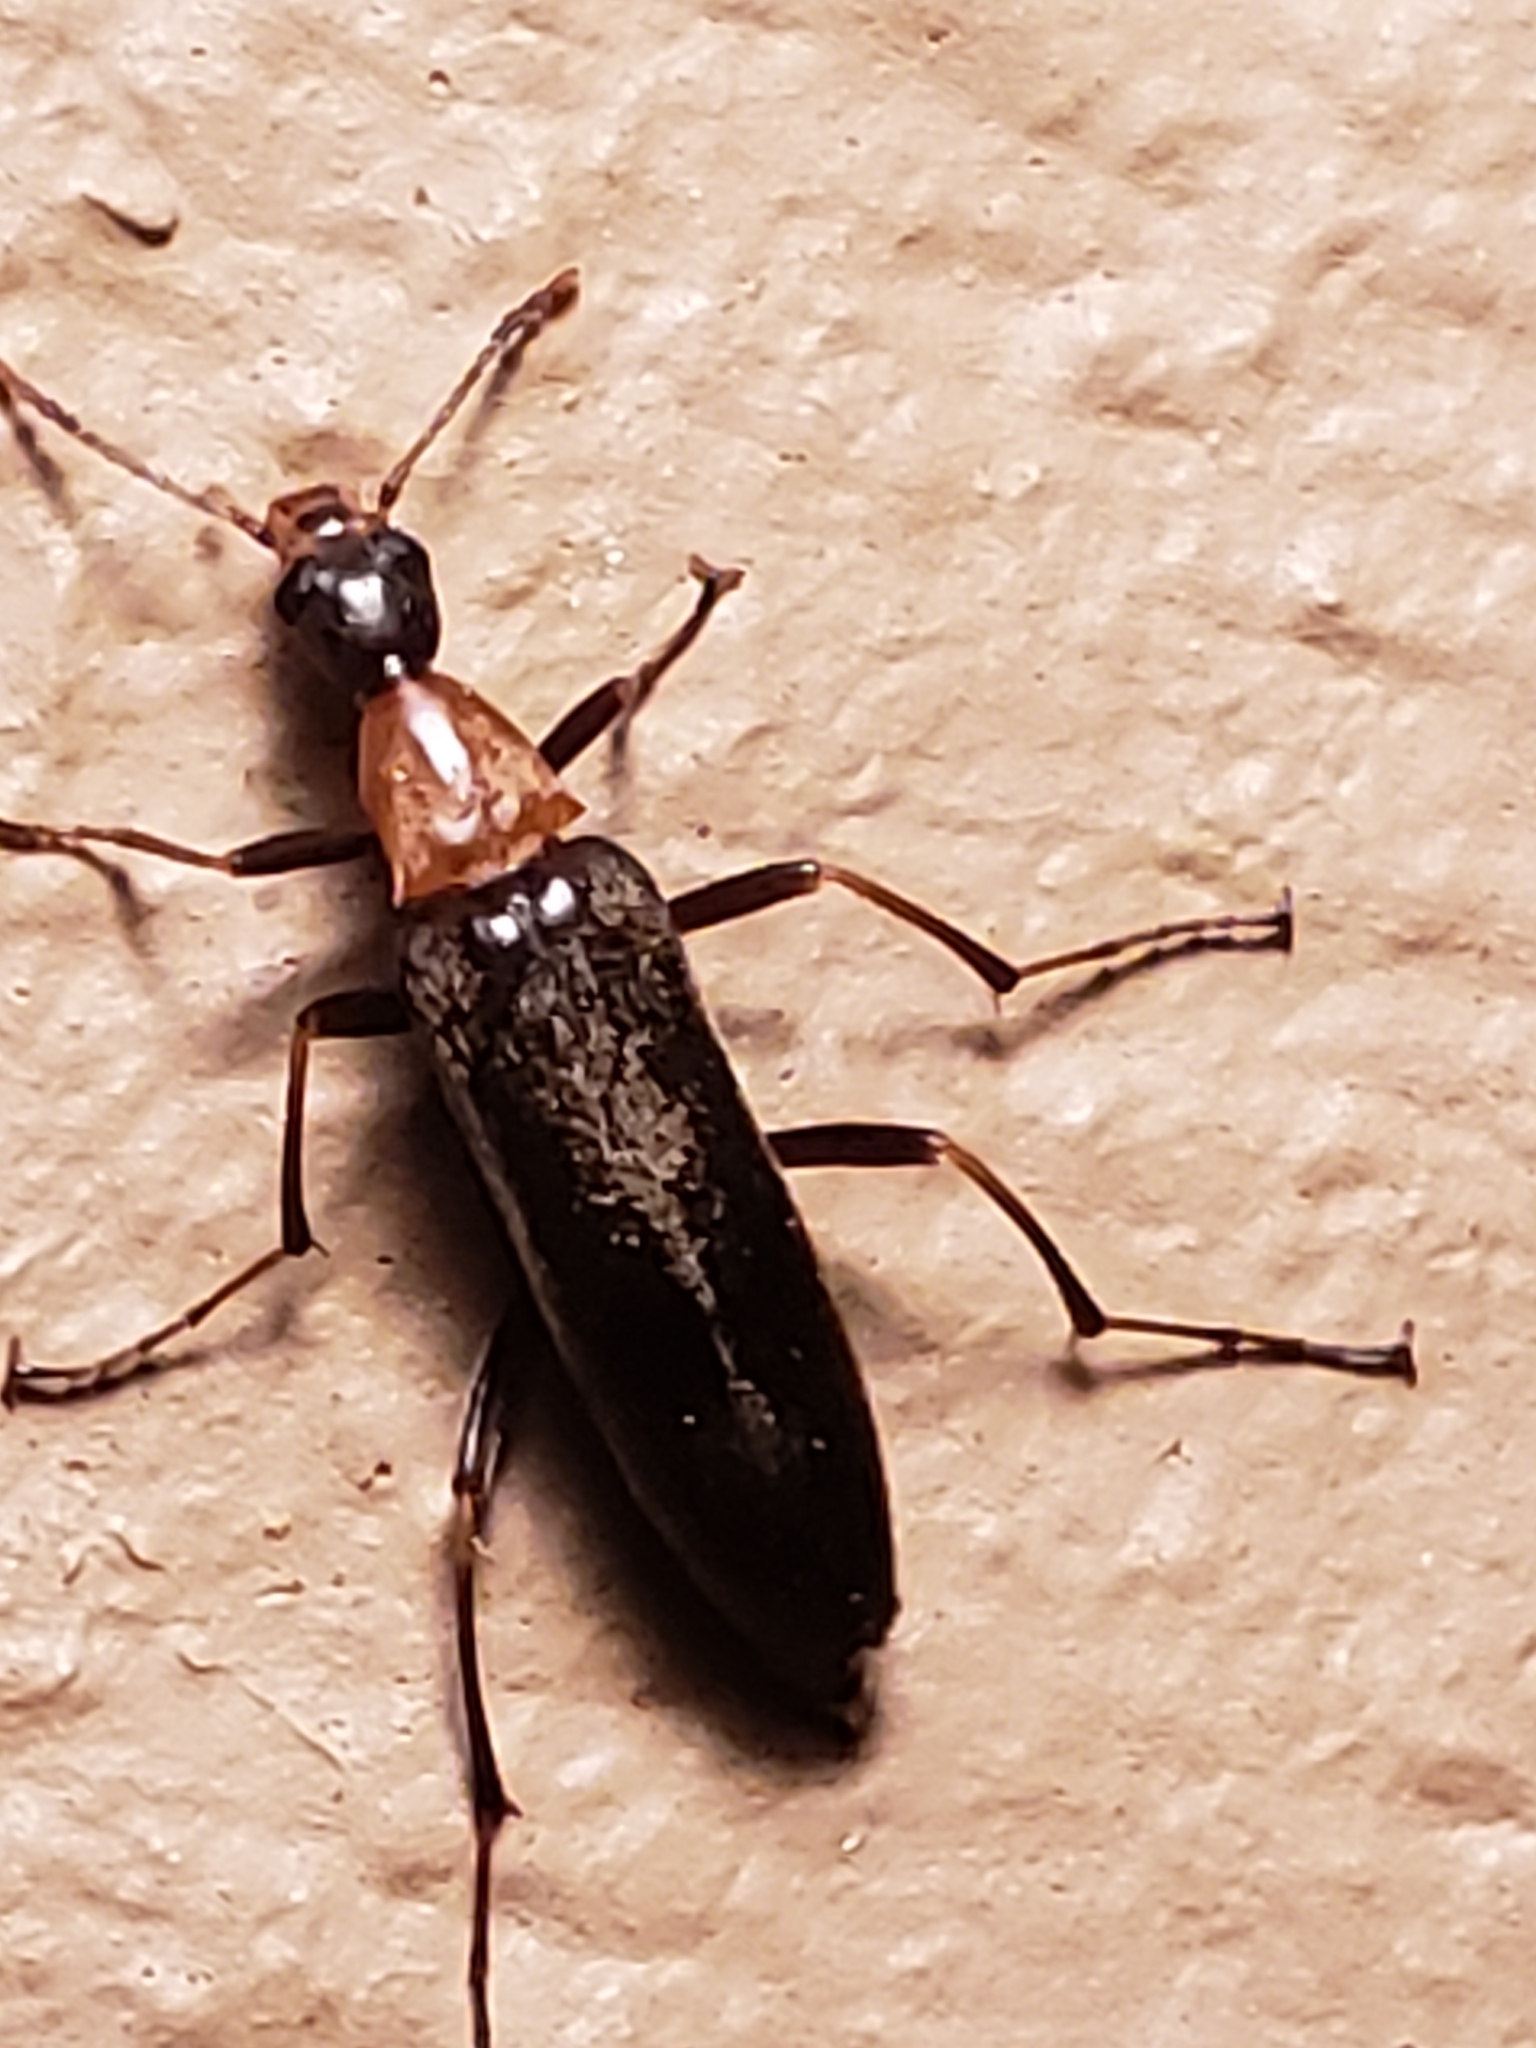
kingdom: Animalia
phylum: Arthropoda
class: Insecta
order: Coleoptera
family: Stenotrachelidae
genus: Cephaloon
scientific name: Cephaloon lepturides
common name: False leptura beetle
